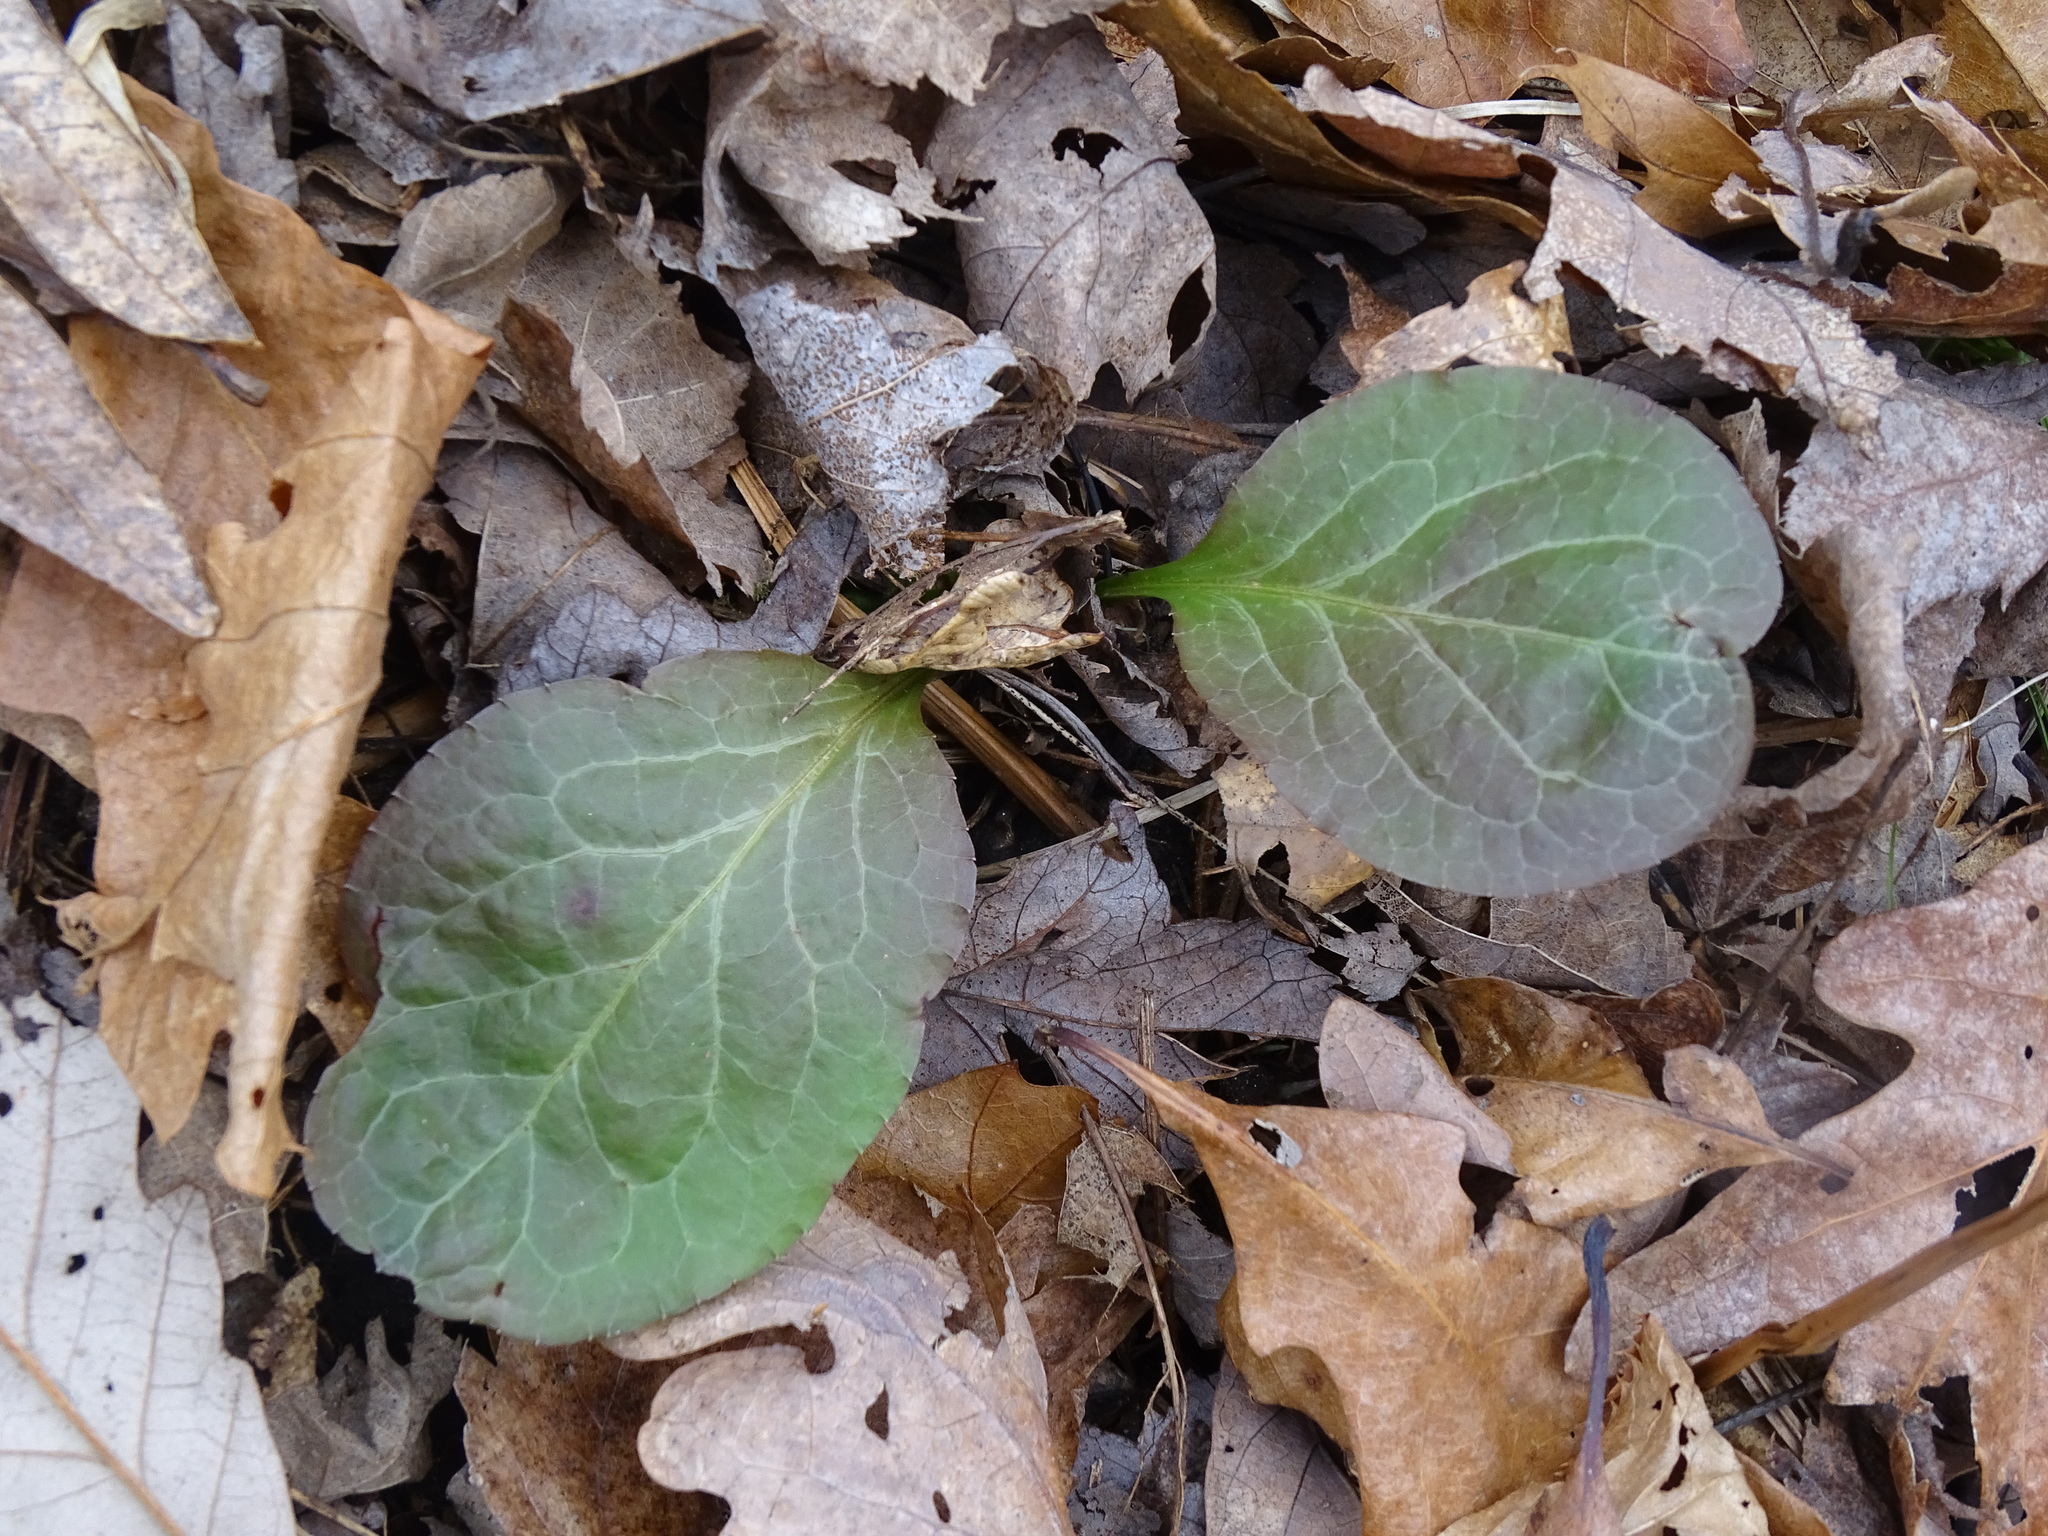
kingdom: Plantae
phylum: Tracheophyta
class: Magnoliopsida
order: Ericales
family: Ericaceae
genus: Pyrola
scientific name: Pyrola elliptica
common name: Shinleaf
